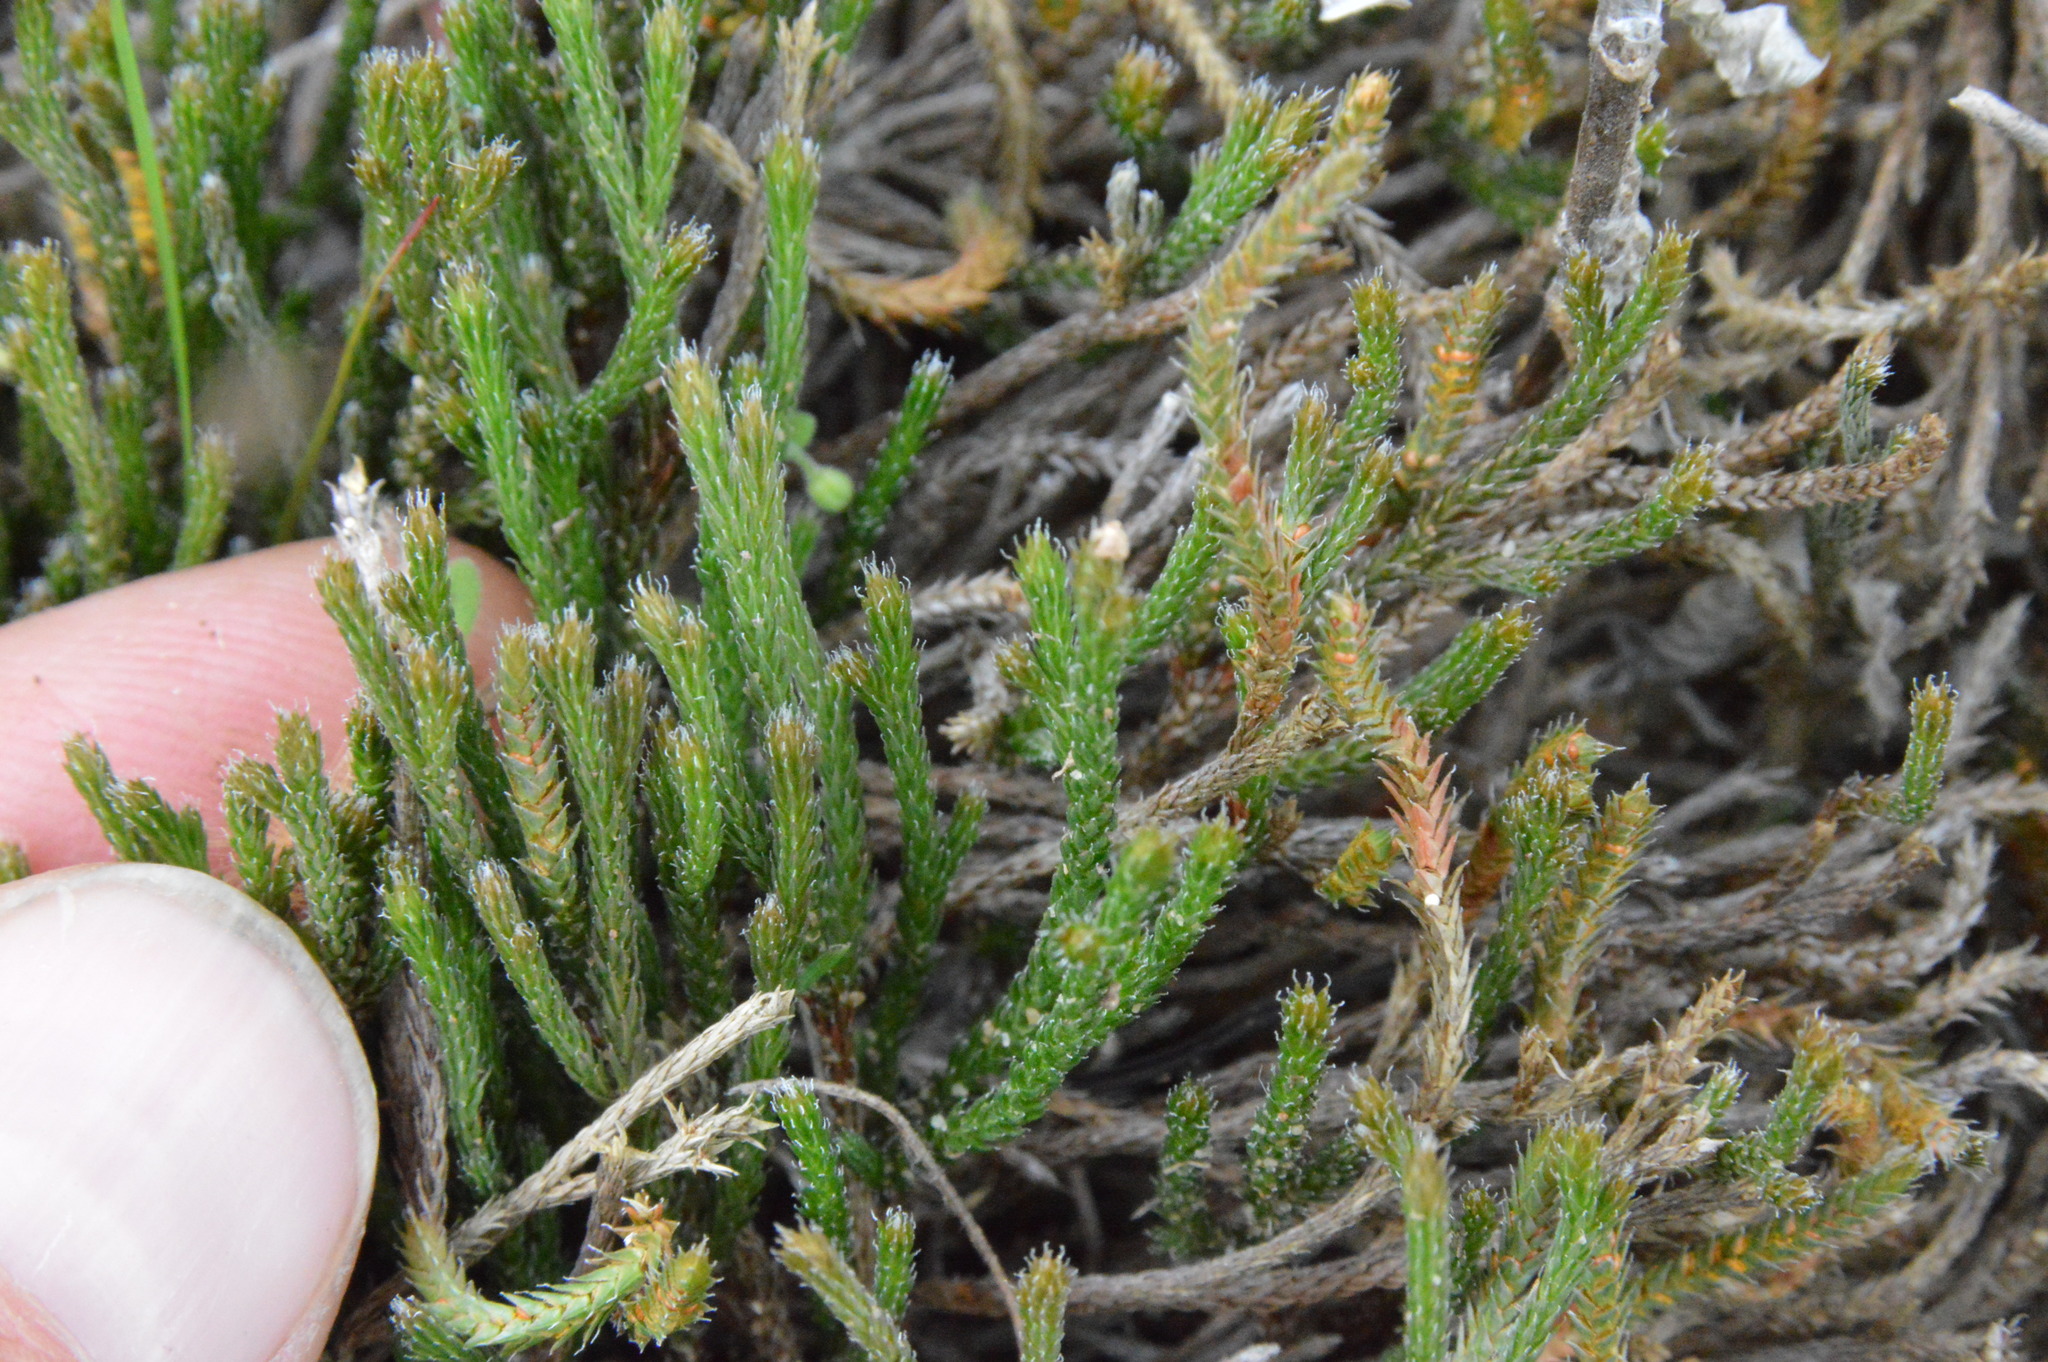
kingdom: Plantae
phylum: Tracheophyta
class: Lycopodiopsida
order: Selaginellales
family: Selaginellaceae
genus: Selaginella
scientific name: Selaginella corallina
